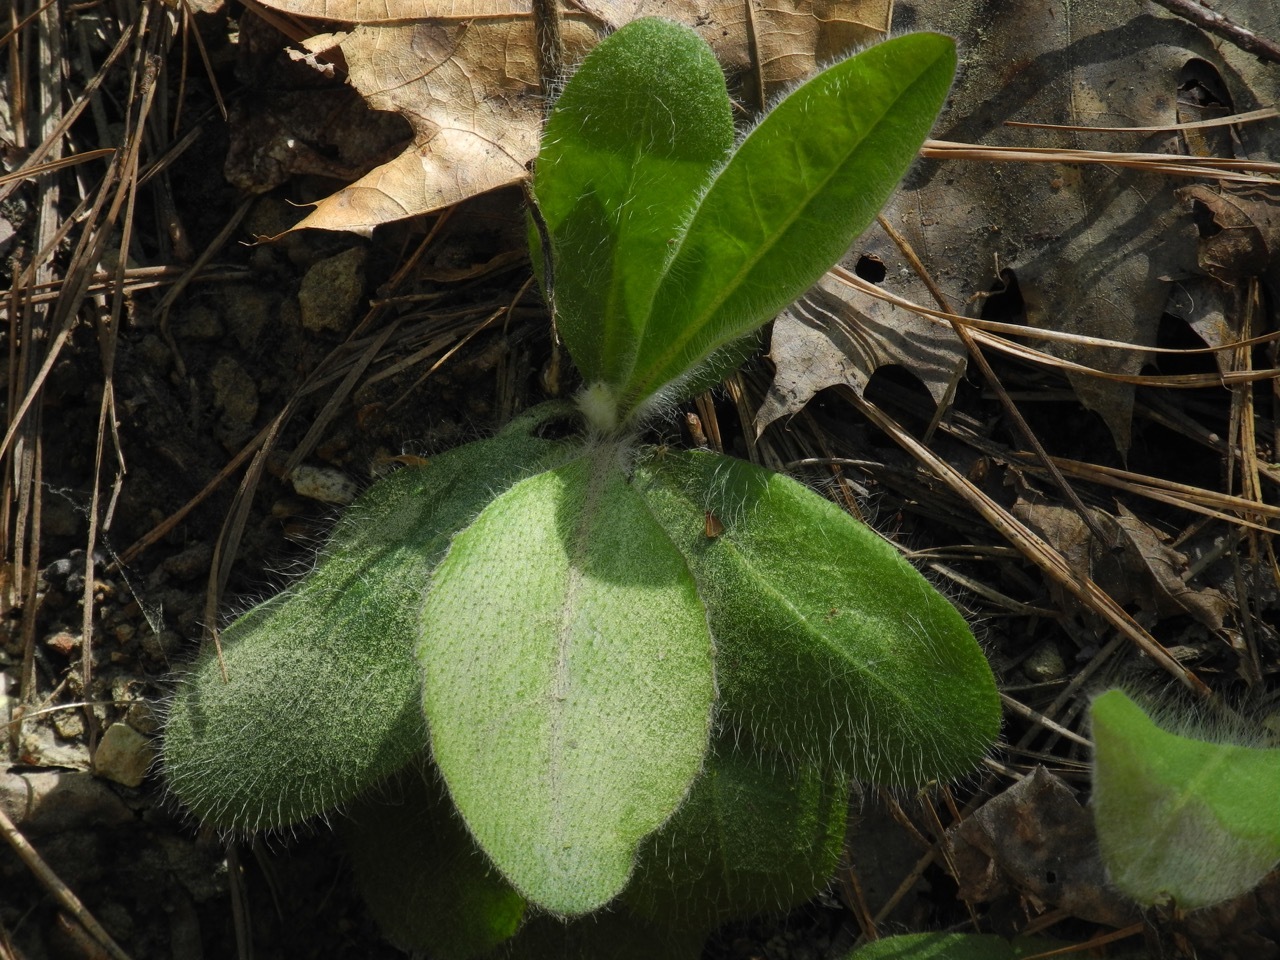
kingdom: Plantae
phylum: Tracheophyta
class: Magnoliopsida
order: Asterales
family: Asteraceae
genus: Hieracium
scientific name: Hieracium gronovii
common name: Beaked hawkweed
